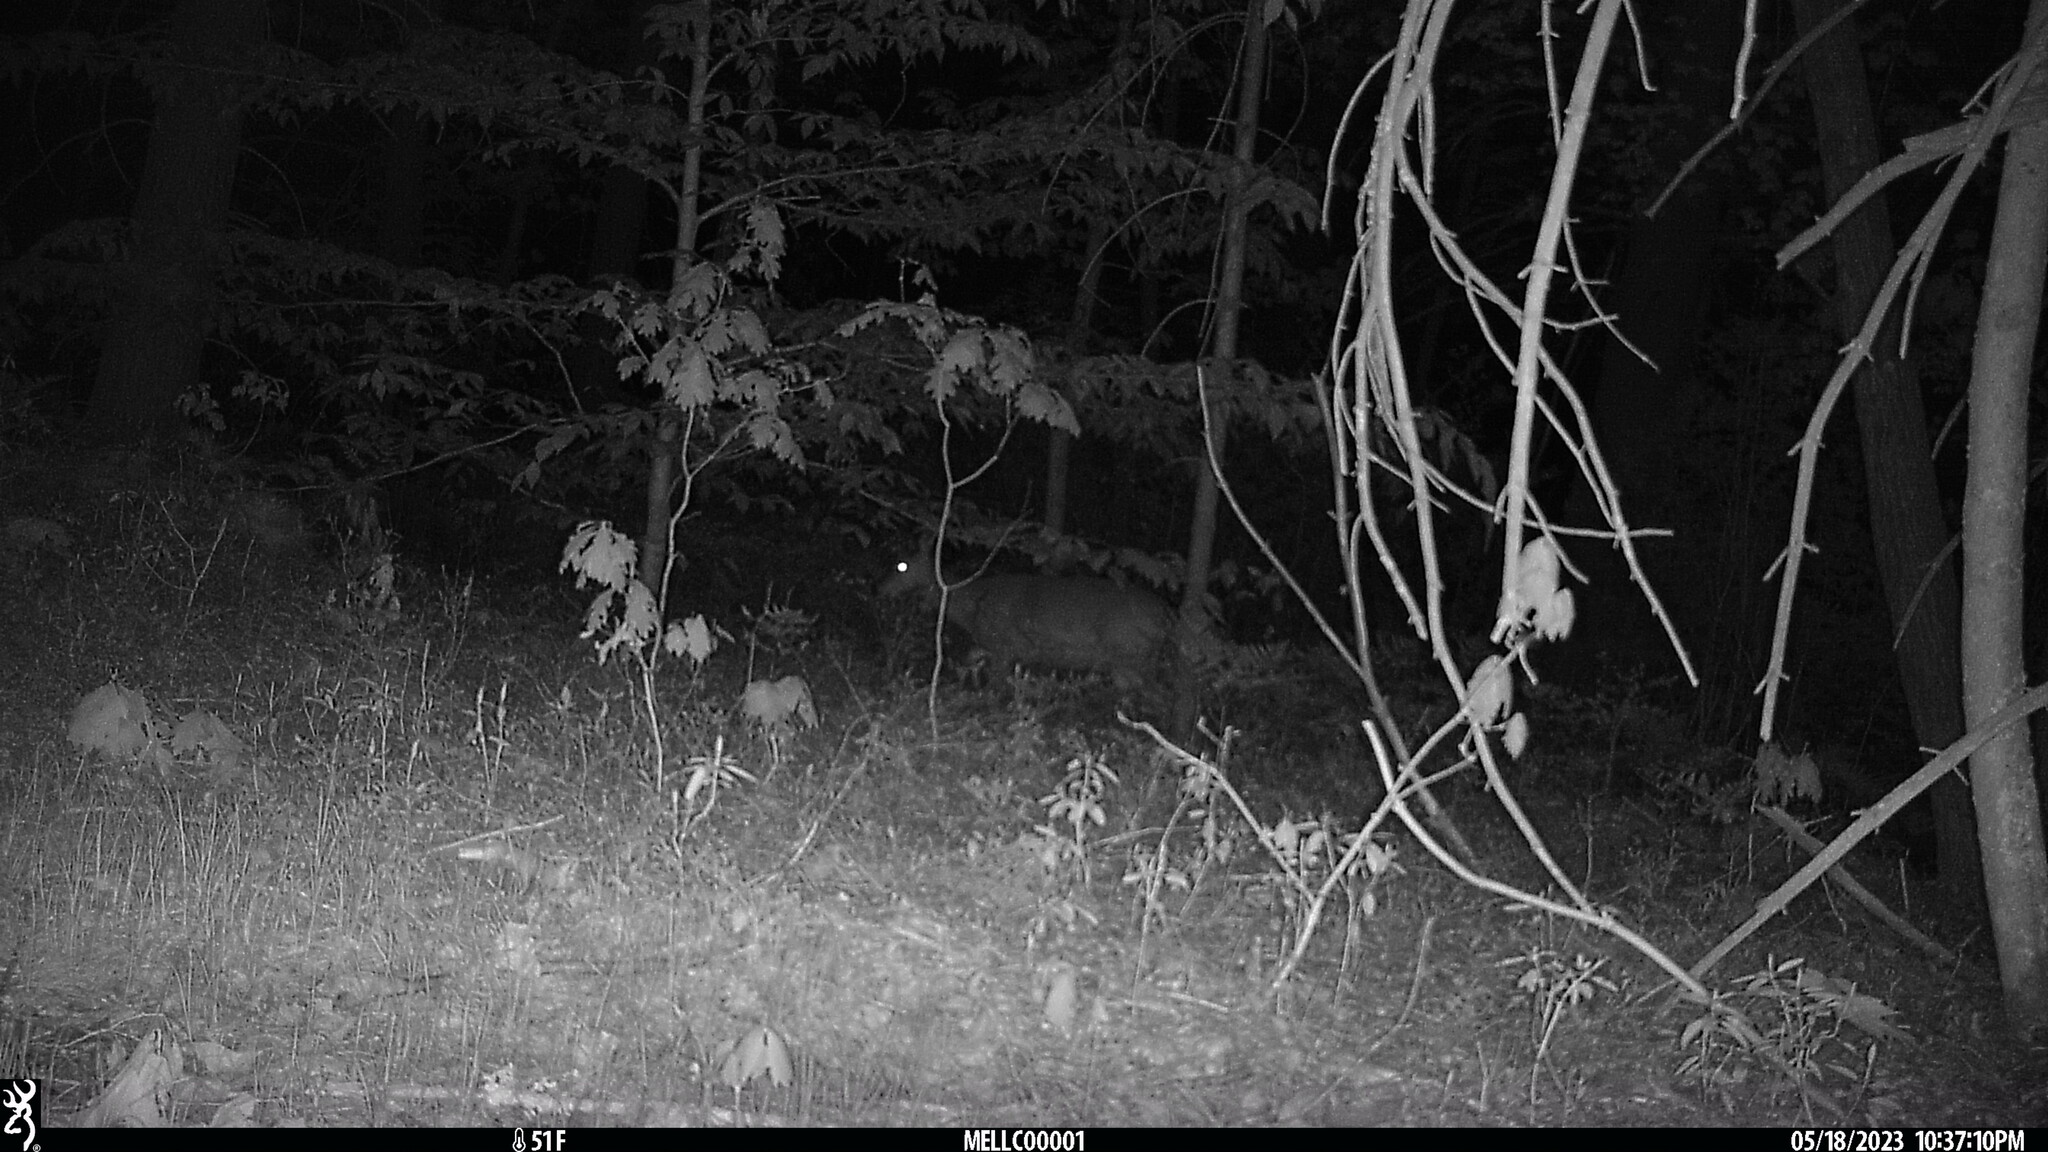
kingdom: Animalia
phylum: Chordata
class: Mammalia
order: Artiodactyla
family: Cervidae
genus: Odocoileus
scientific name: Odocoileus virginianus
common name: White-tailed deer
